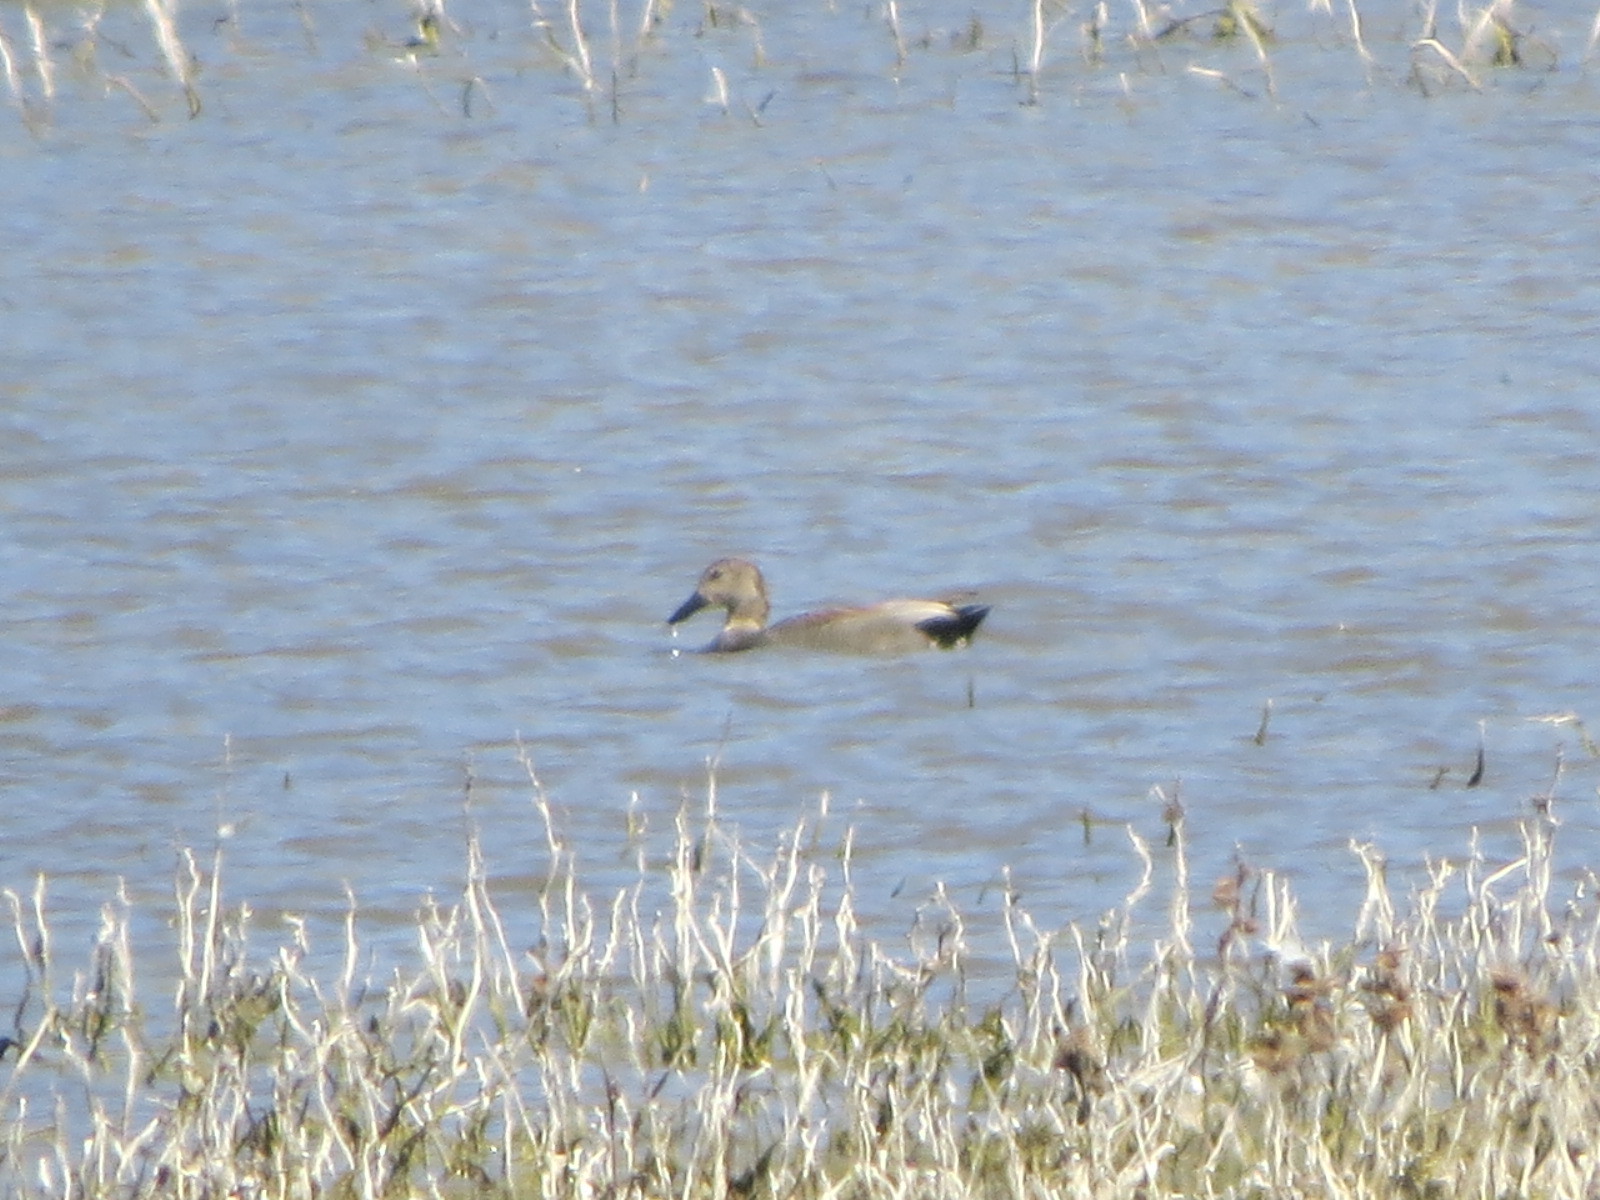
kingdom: Animalia
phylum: Chordata
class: Aves
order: Anseriformes
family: Anatidae
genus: Mareca
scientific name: Mareca strepera
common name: Gadwall
